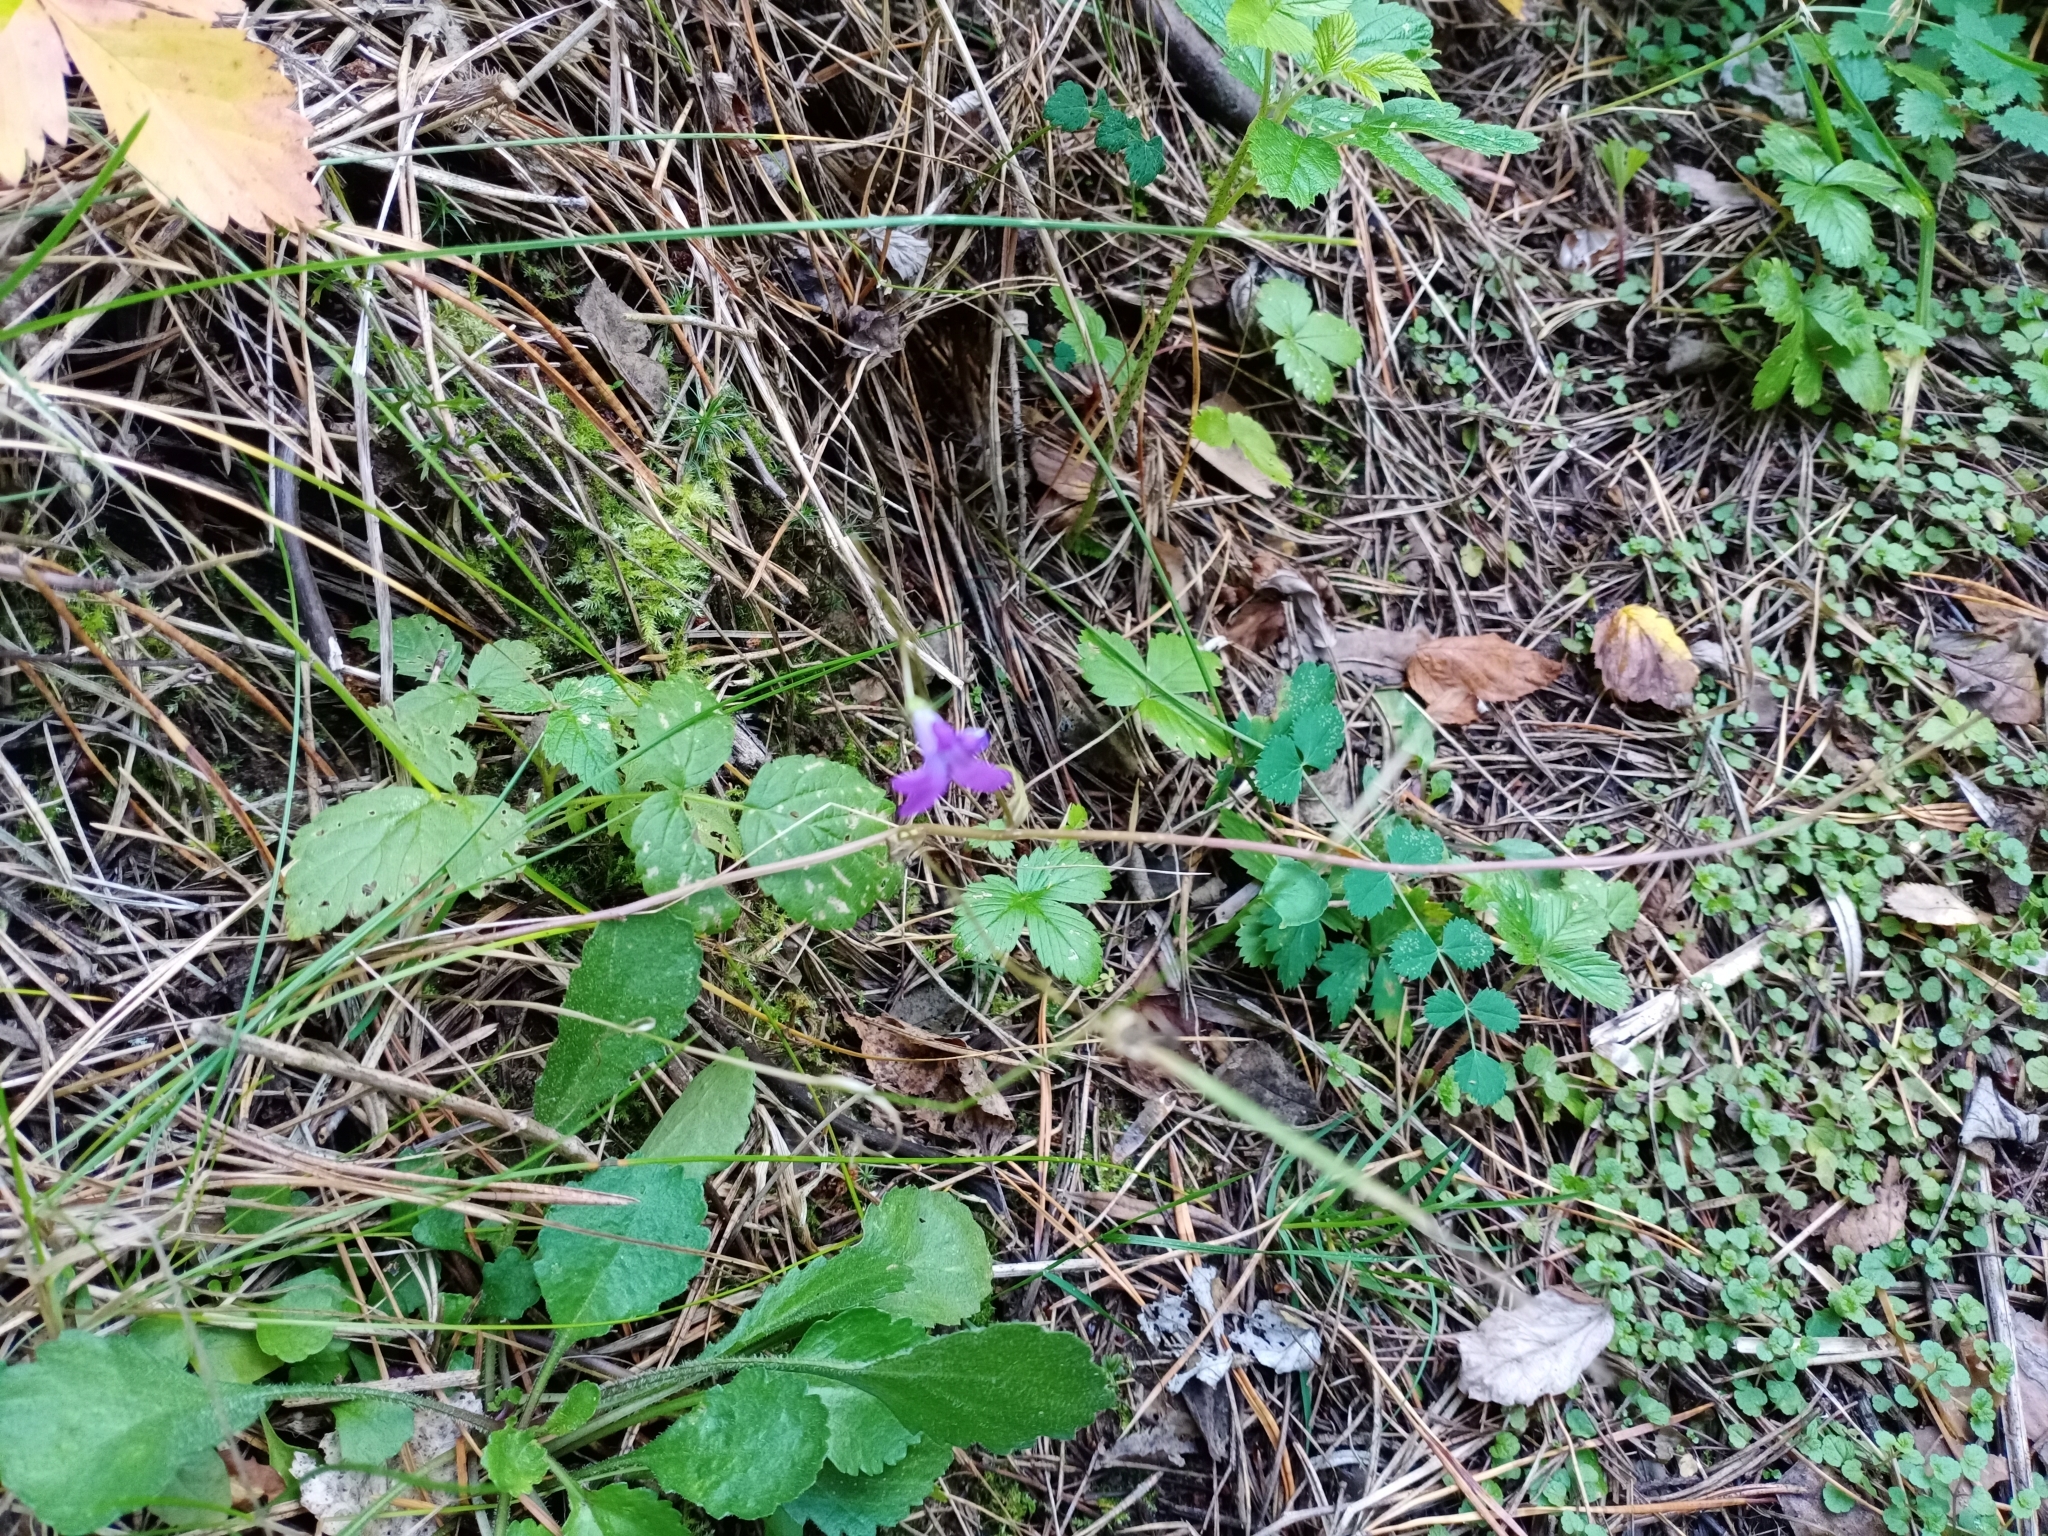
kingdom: Plantae
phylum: Tracheophyta
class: Magnoliopsida
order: Asterales
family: Campanulaceae
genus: Campanula
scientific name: Campanula patula
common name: Spreading bellflower
